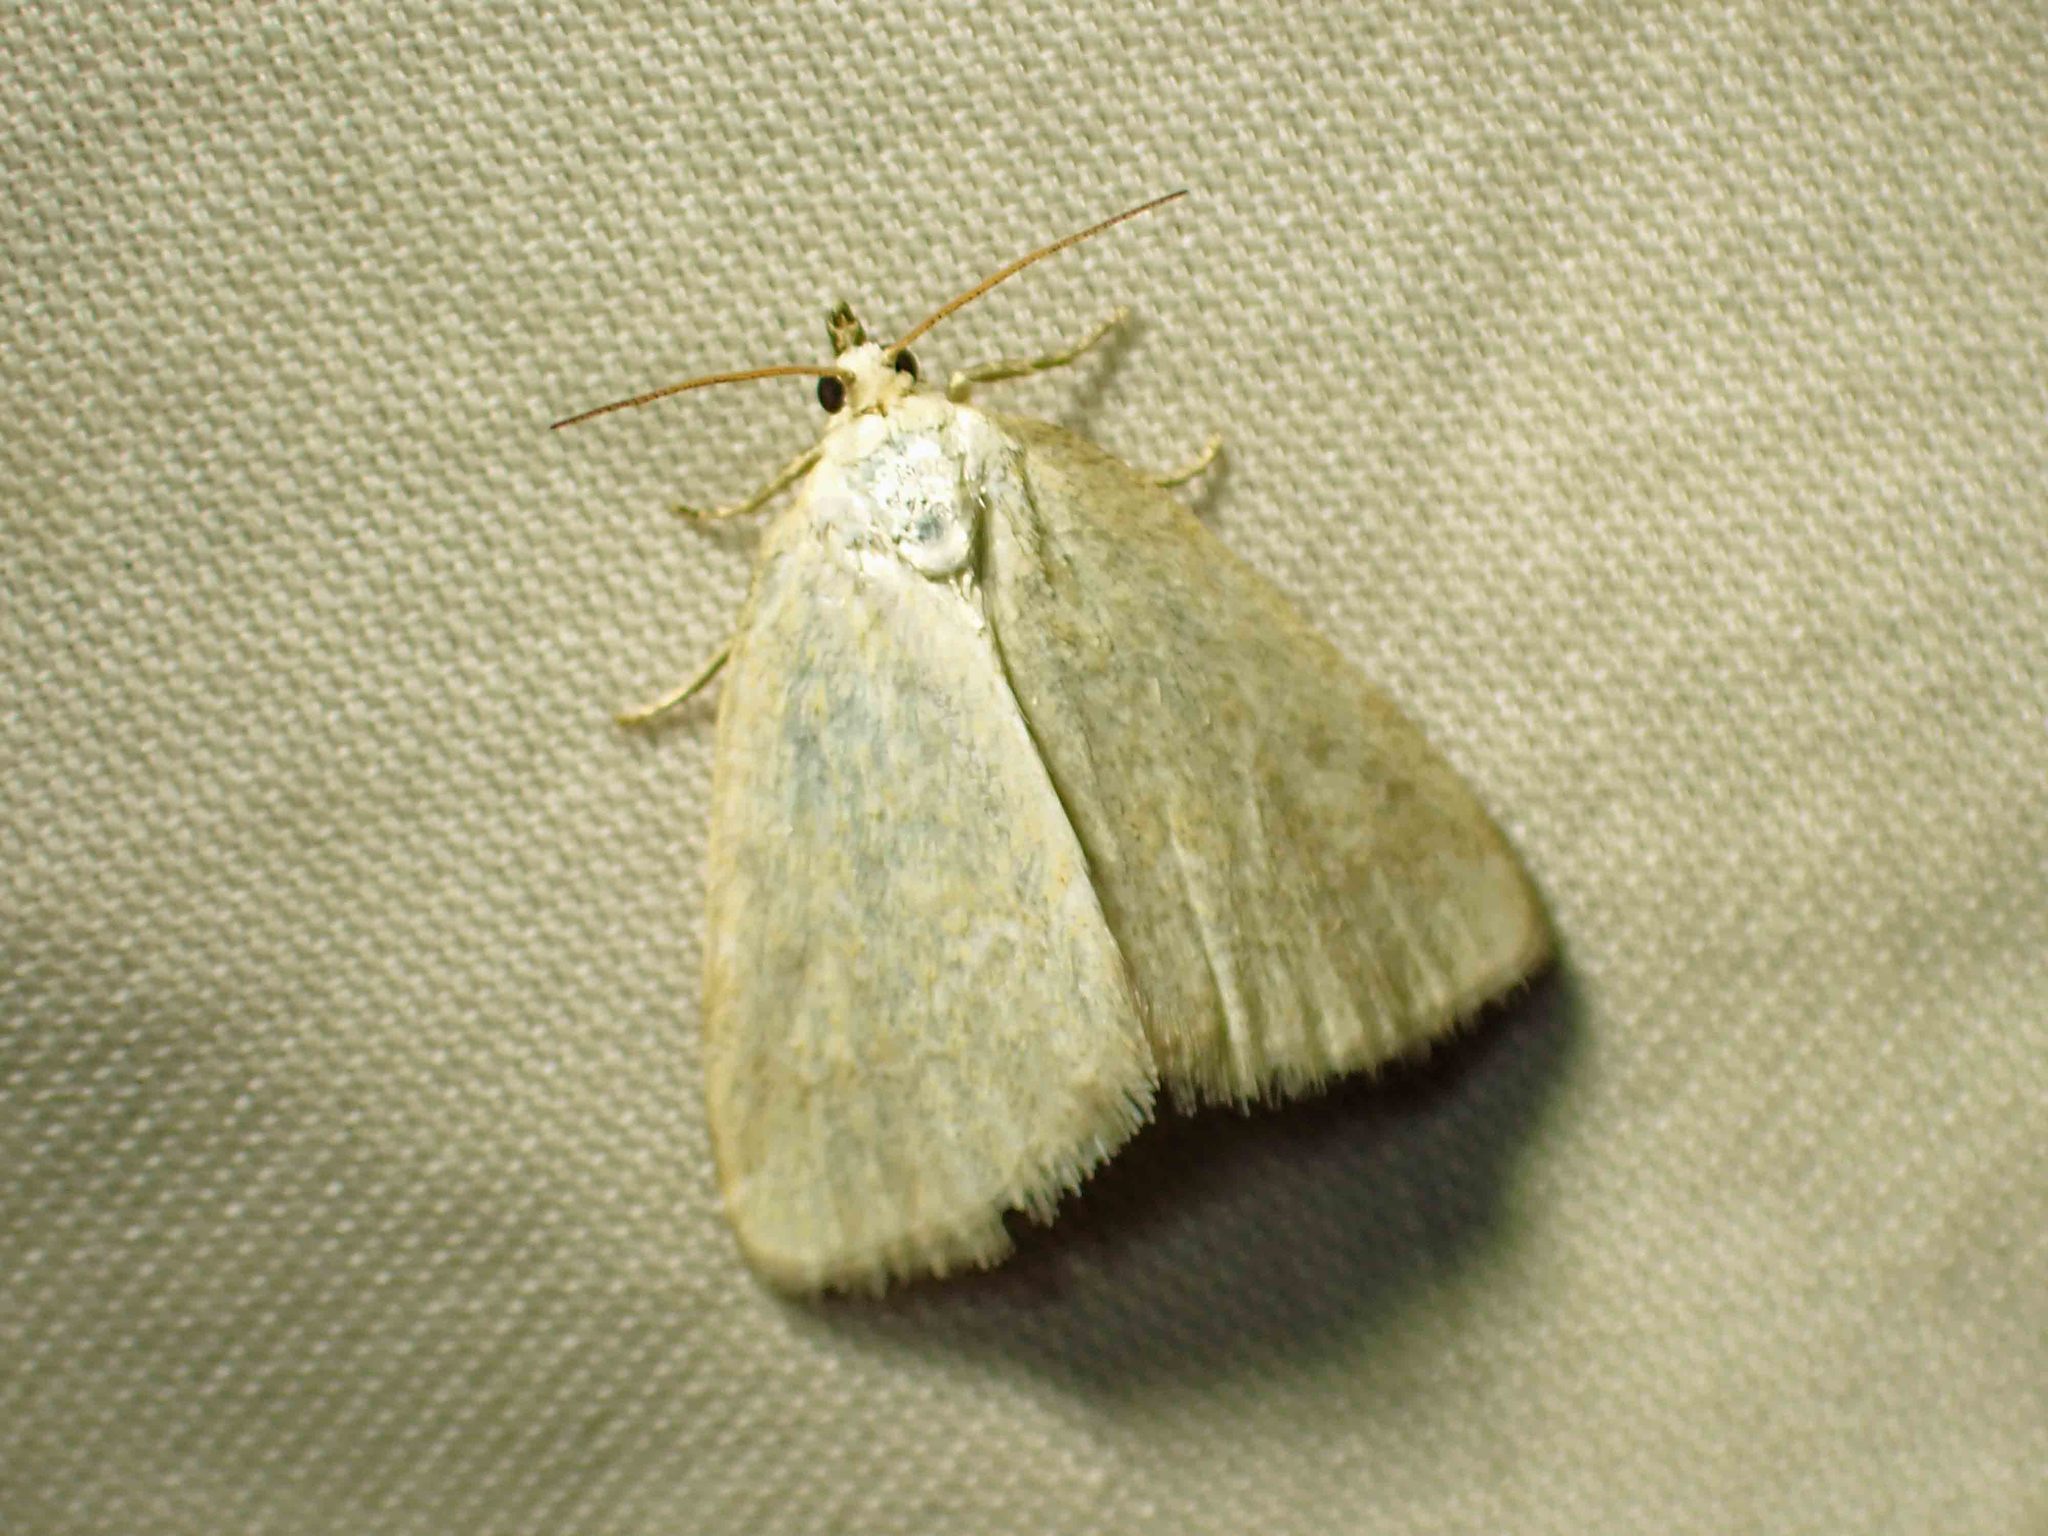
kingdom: Animalia
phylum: Arthropoda
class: Insecta
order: Lepidoptera
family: Noctuidae
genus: Protodeltote
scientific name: Protodeltote albidula
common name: Pale glyph
